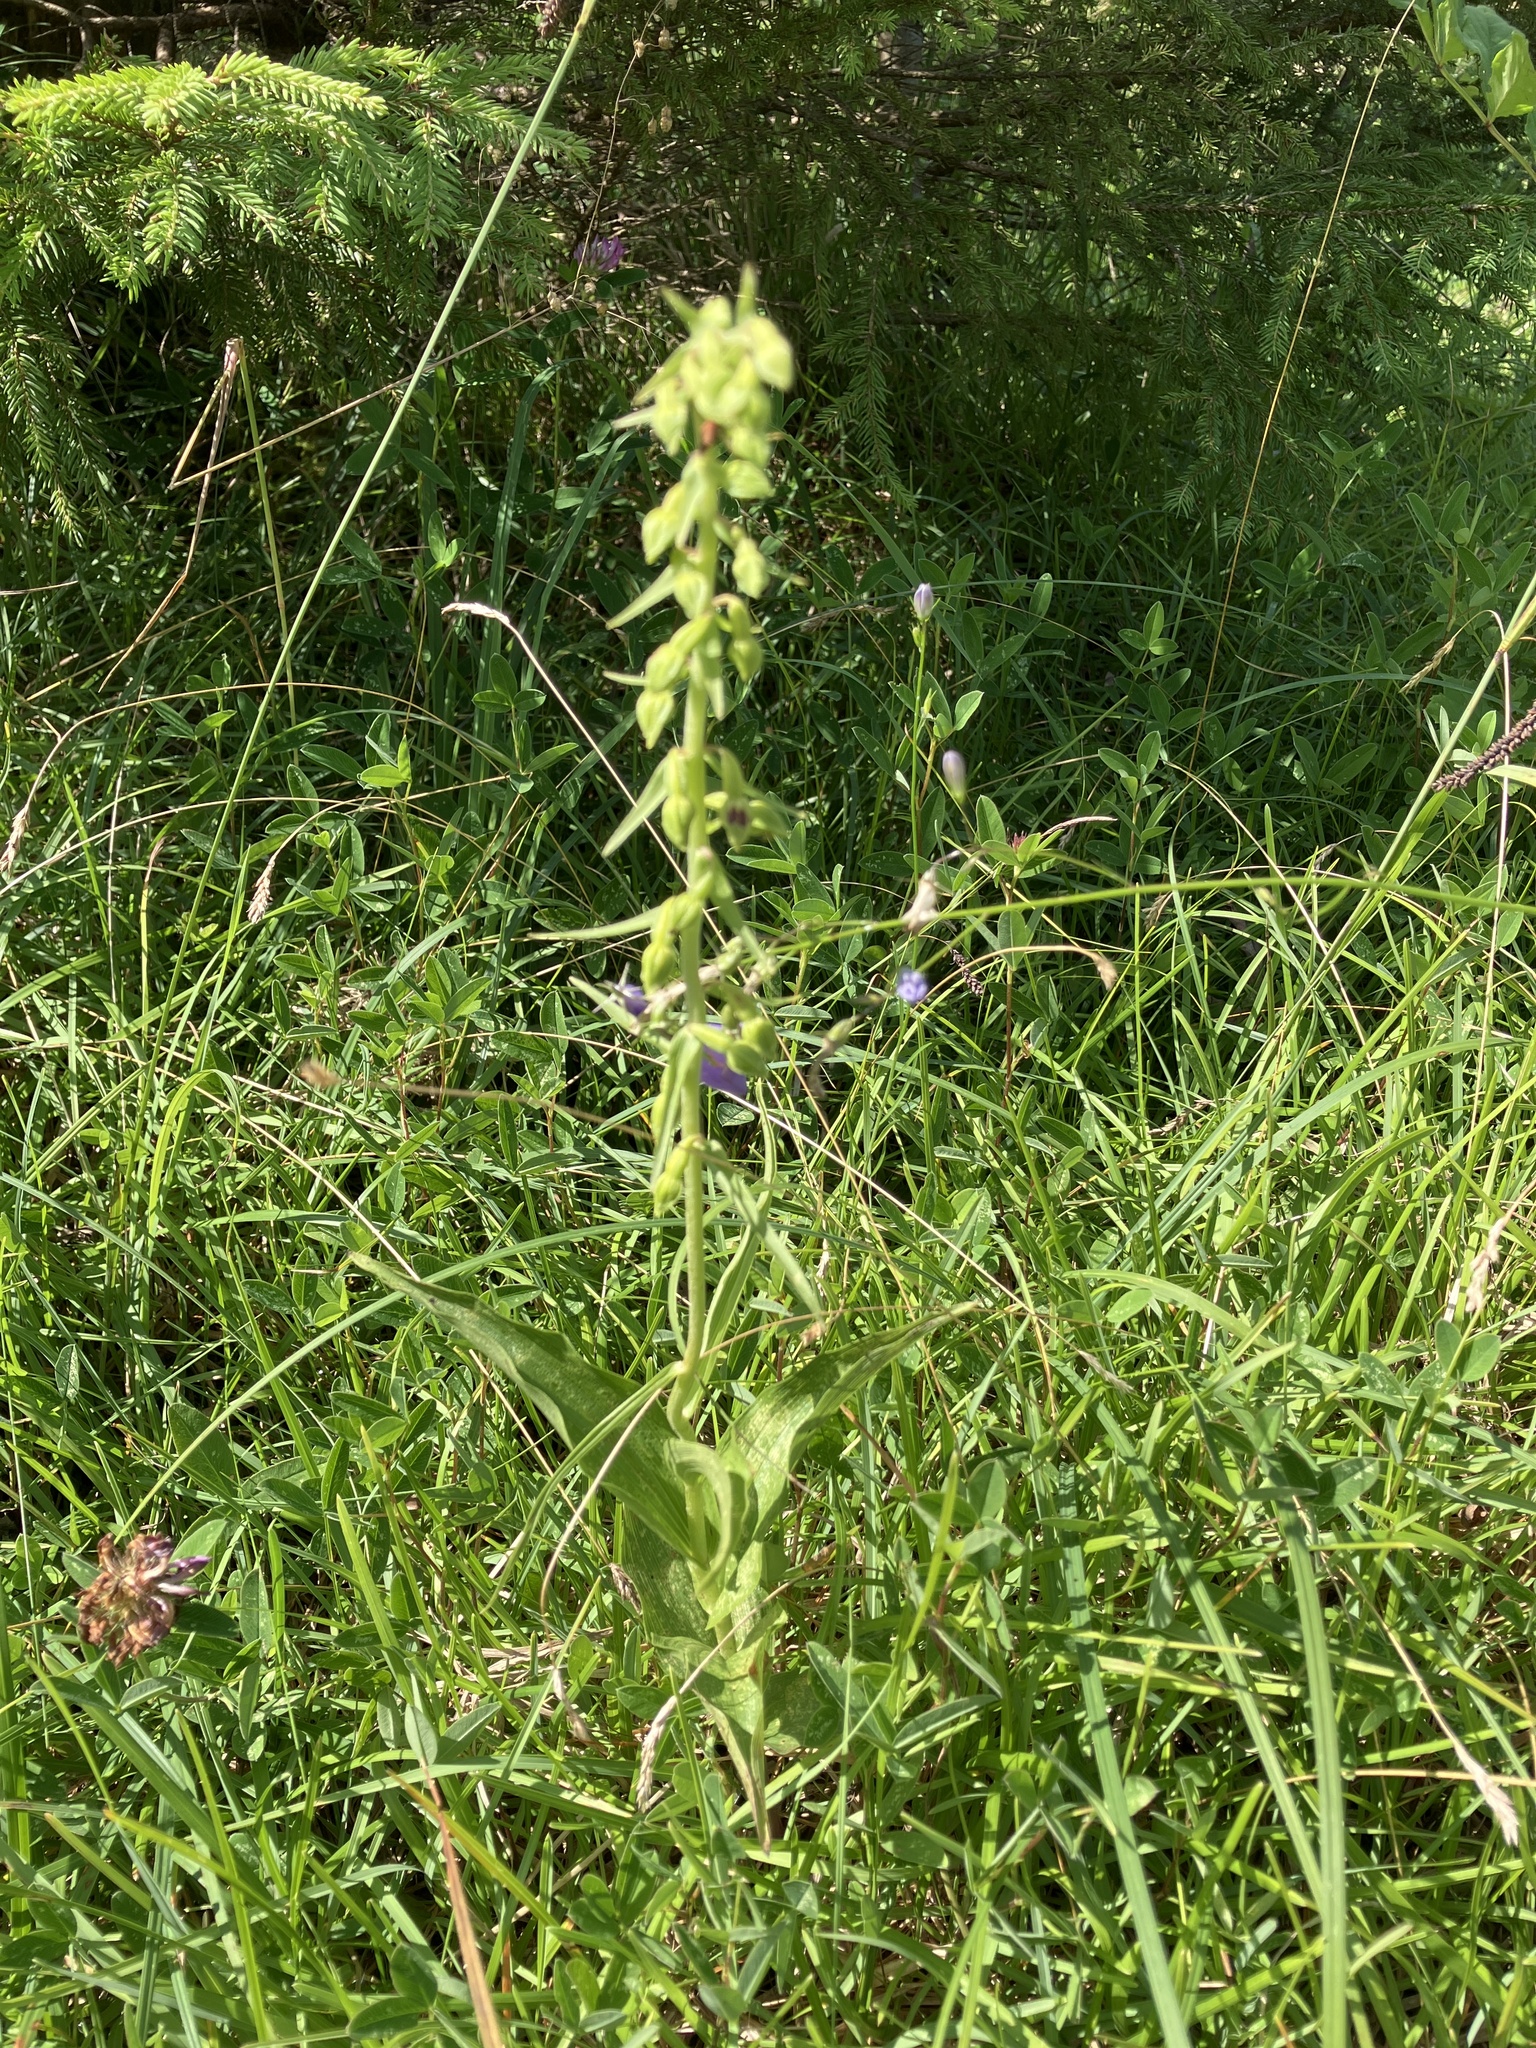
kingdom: Plantae
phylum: Tracheophyta
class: Liliopsida
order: Asparagales
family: Orchidaceae
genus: Epipactis
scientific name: Epipactis helleborine
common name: Broad-leaved helleborine
